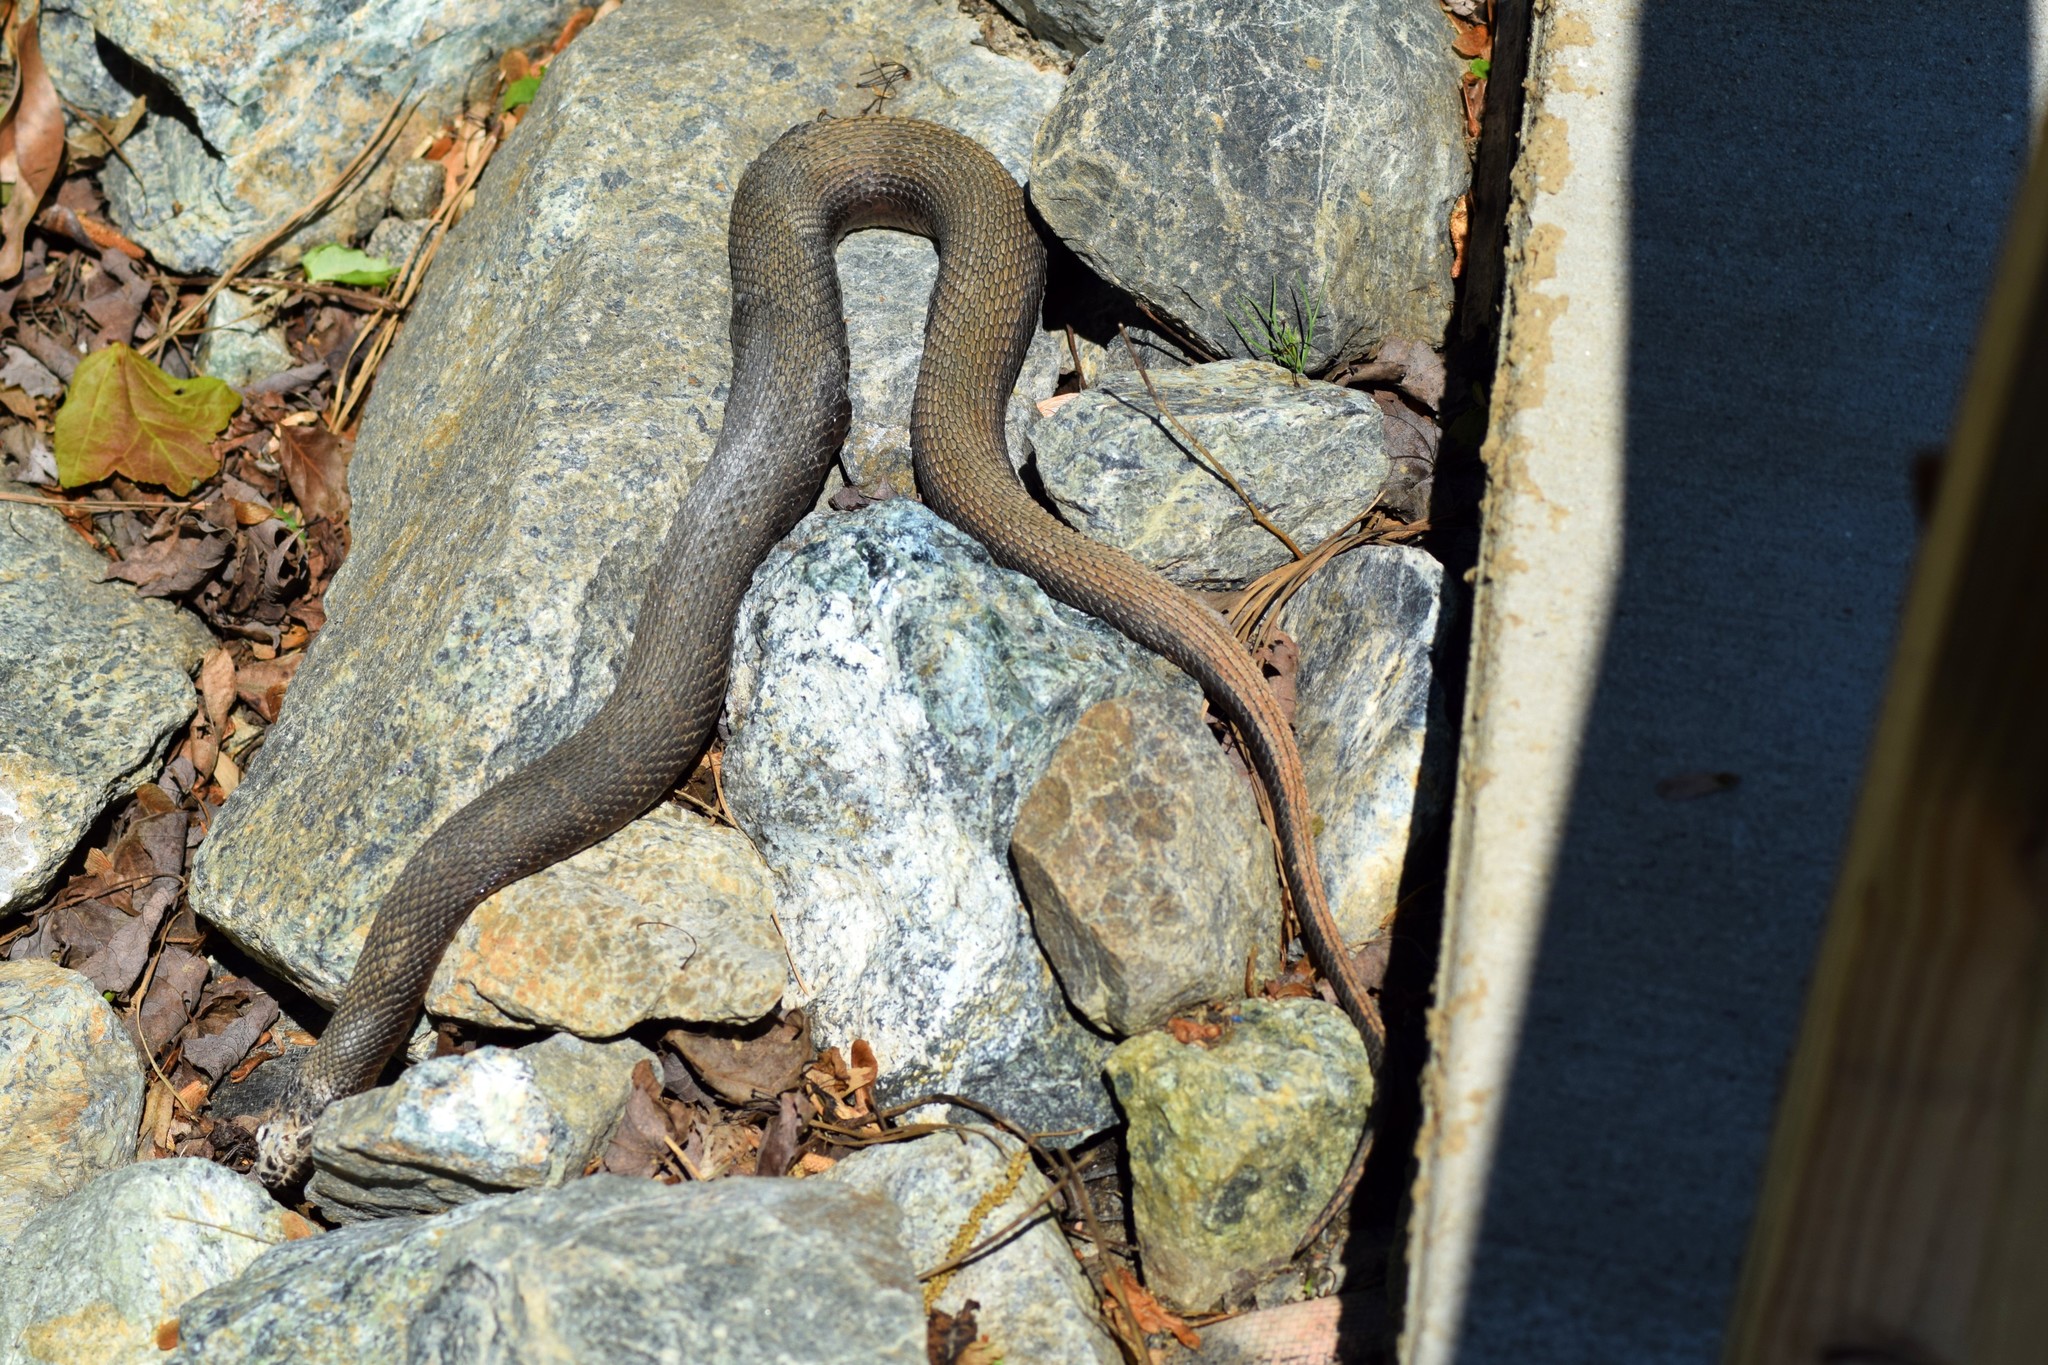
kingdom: Animalia
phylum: Chordata
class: Squamata
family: Colubridae
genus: Nerodia
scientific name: Nerodia sipedon
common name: Northern water snake
